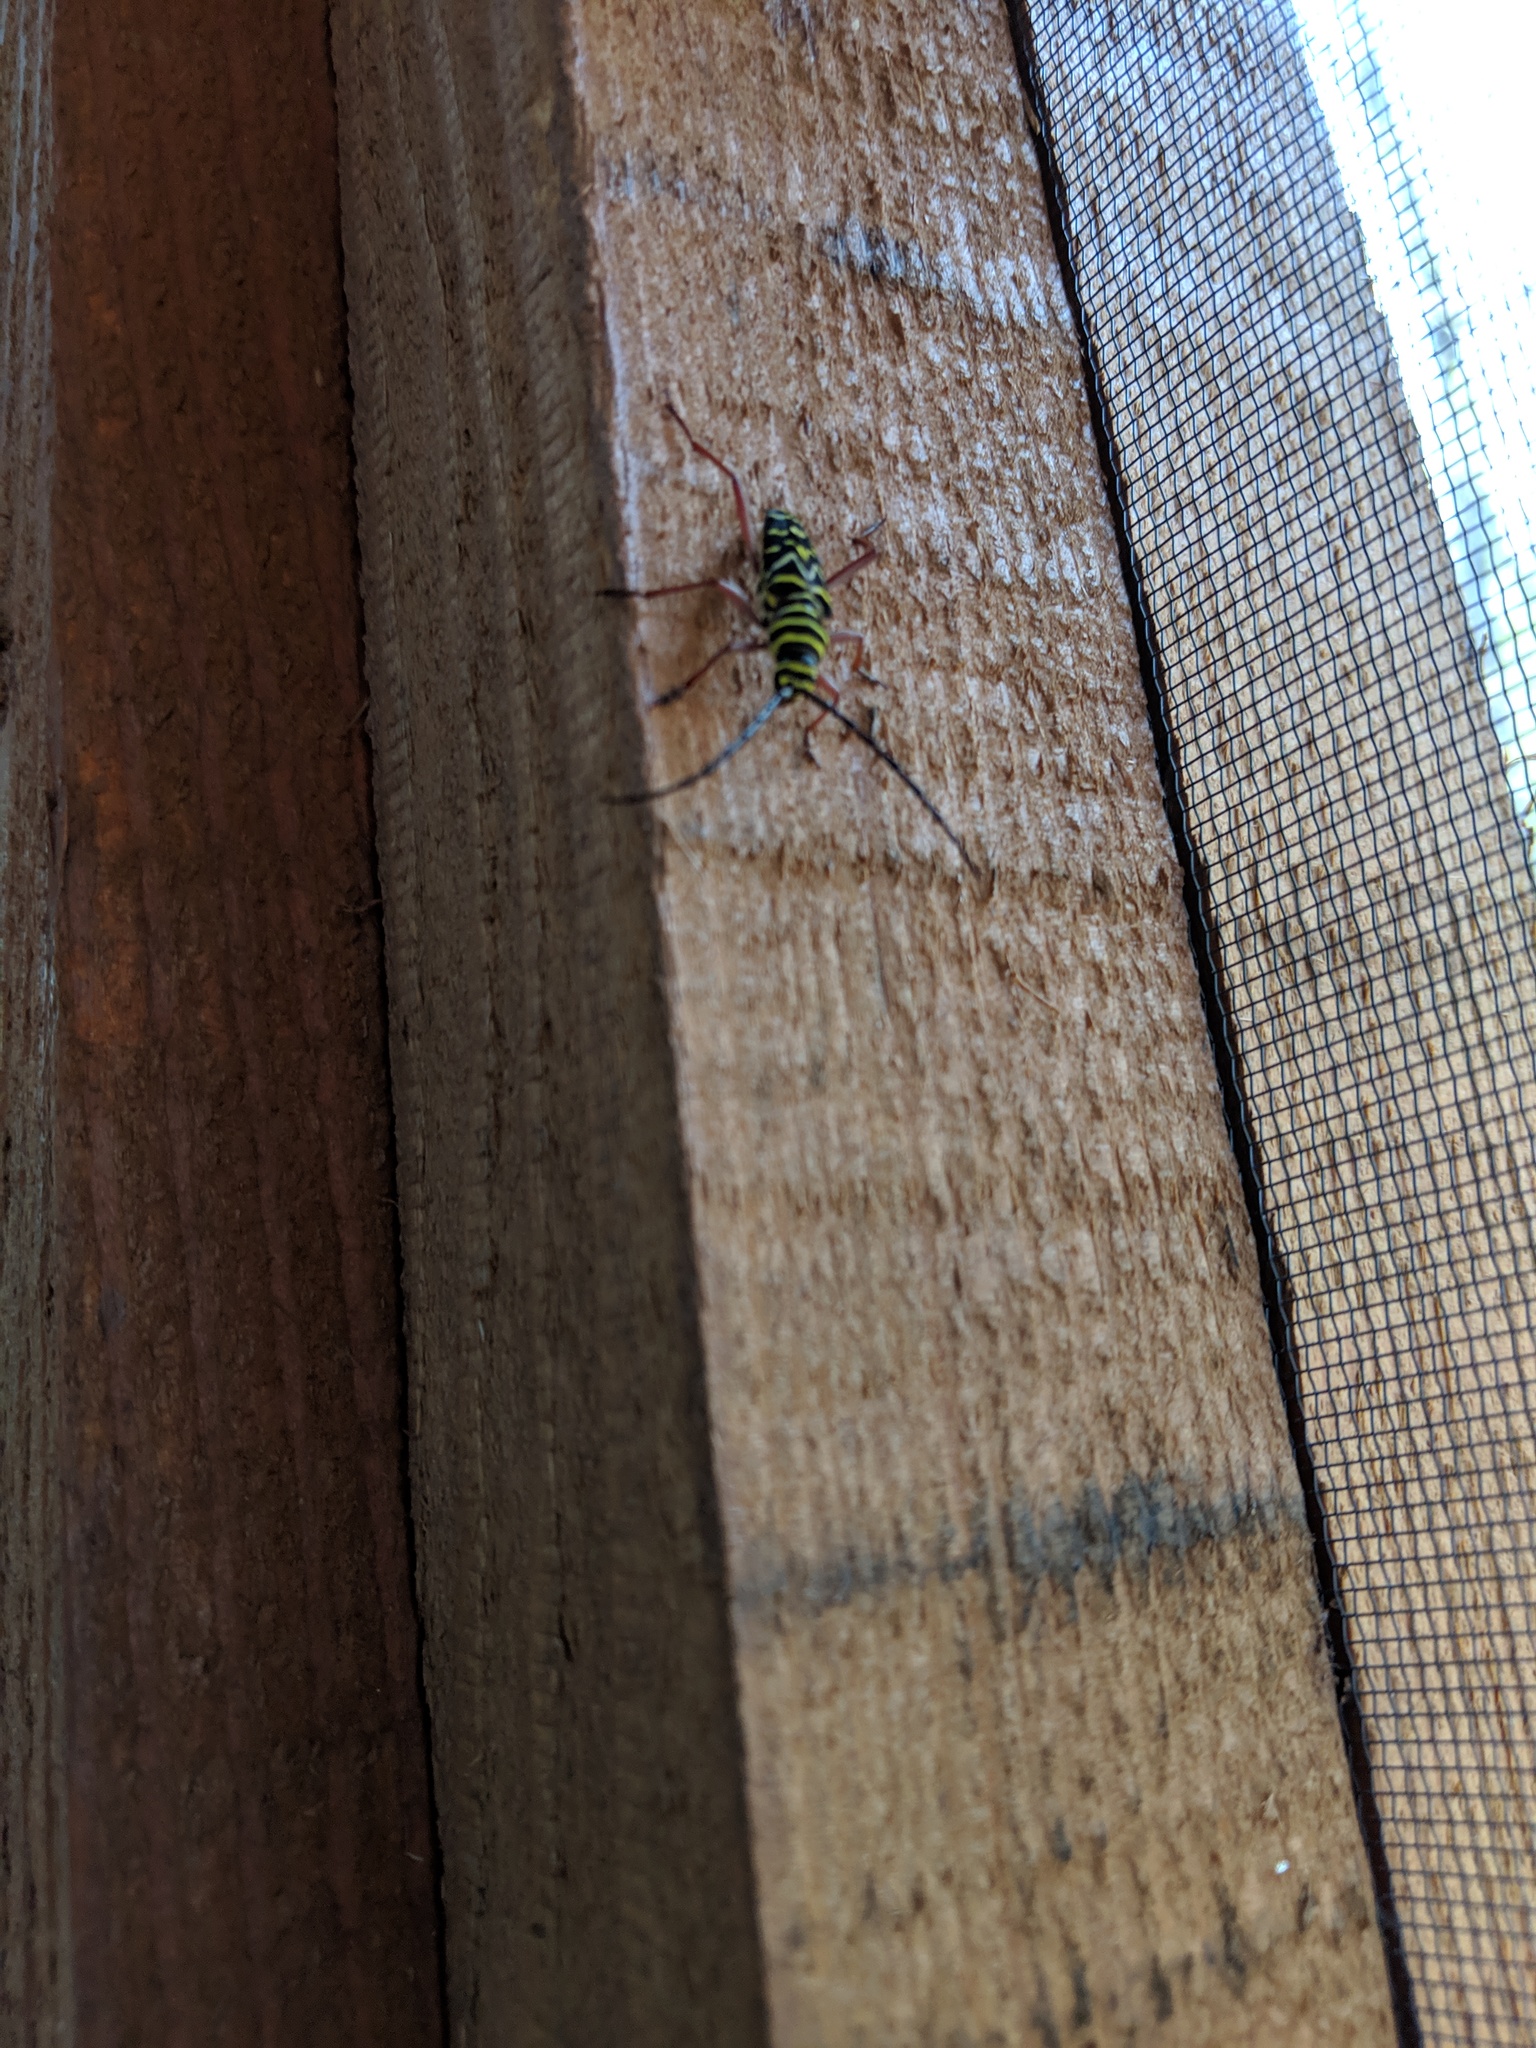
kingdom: Animalia
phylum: Arthropoda
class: Insecta
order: Coleoptera
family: Cerambycidae
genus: Megacyllene
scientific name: Megacyllene caryae
